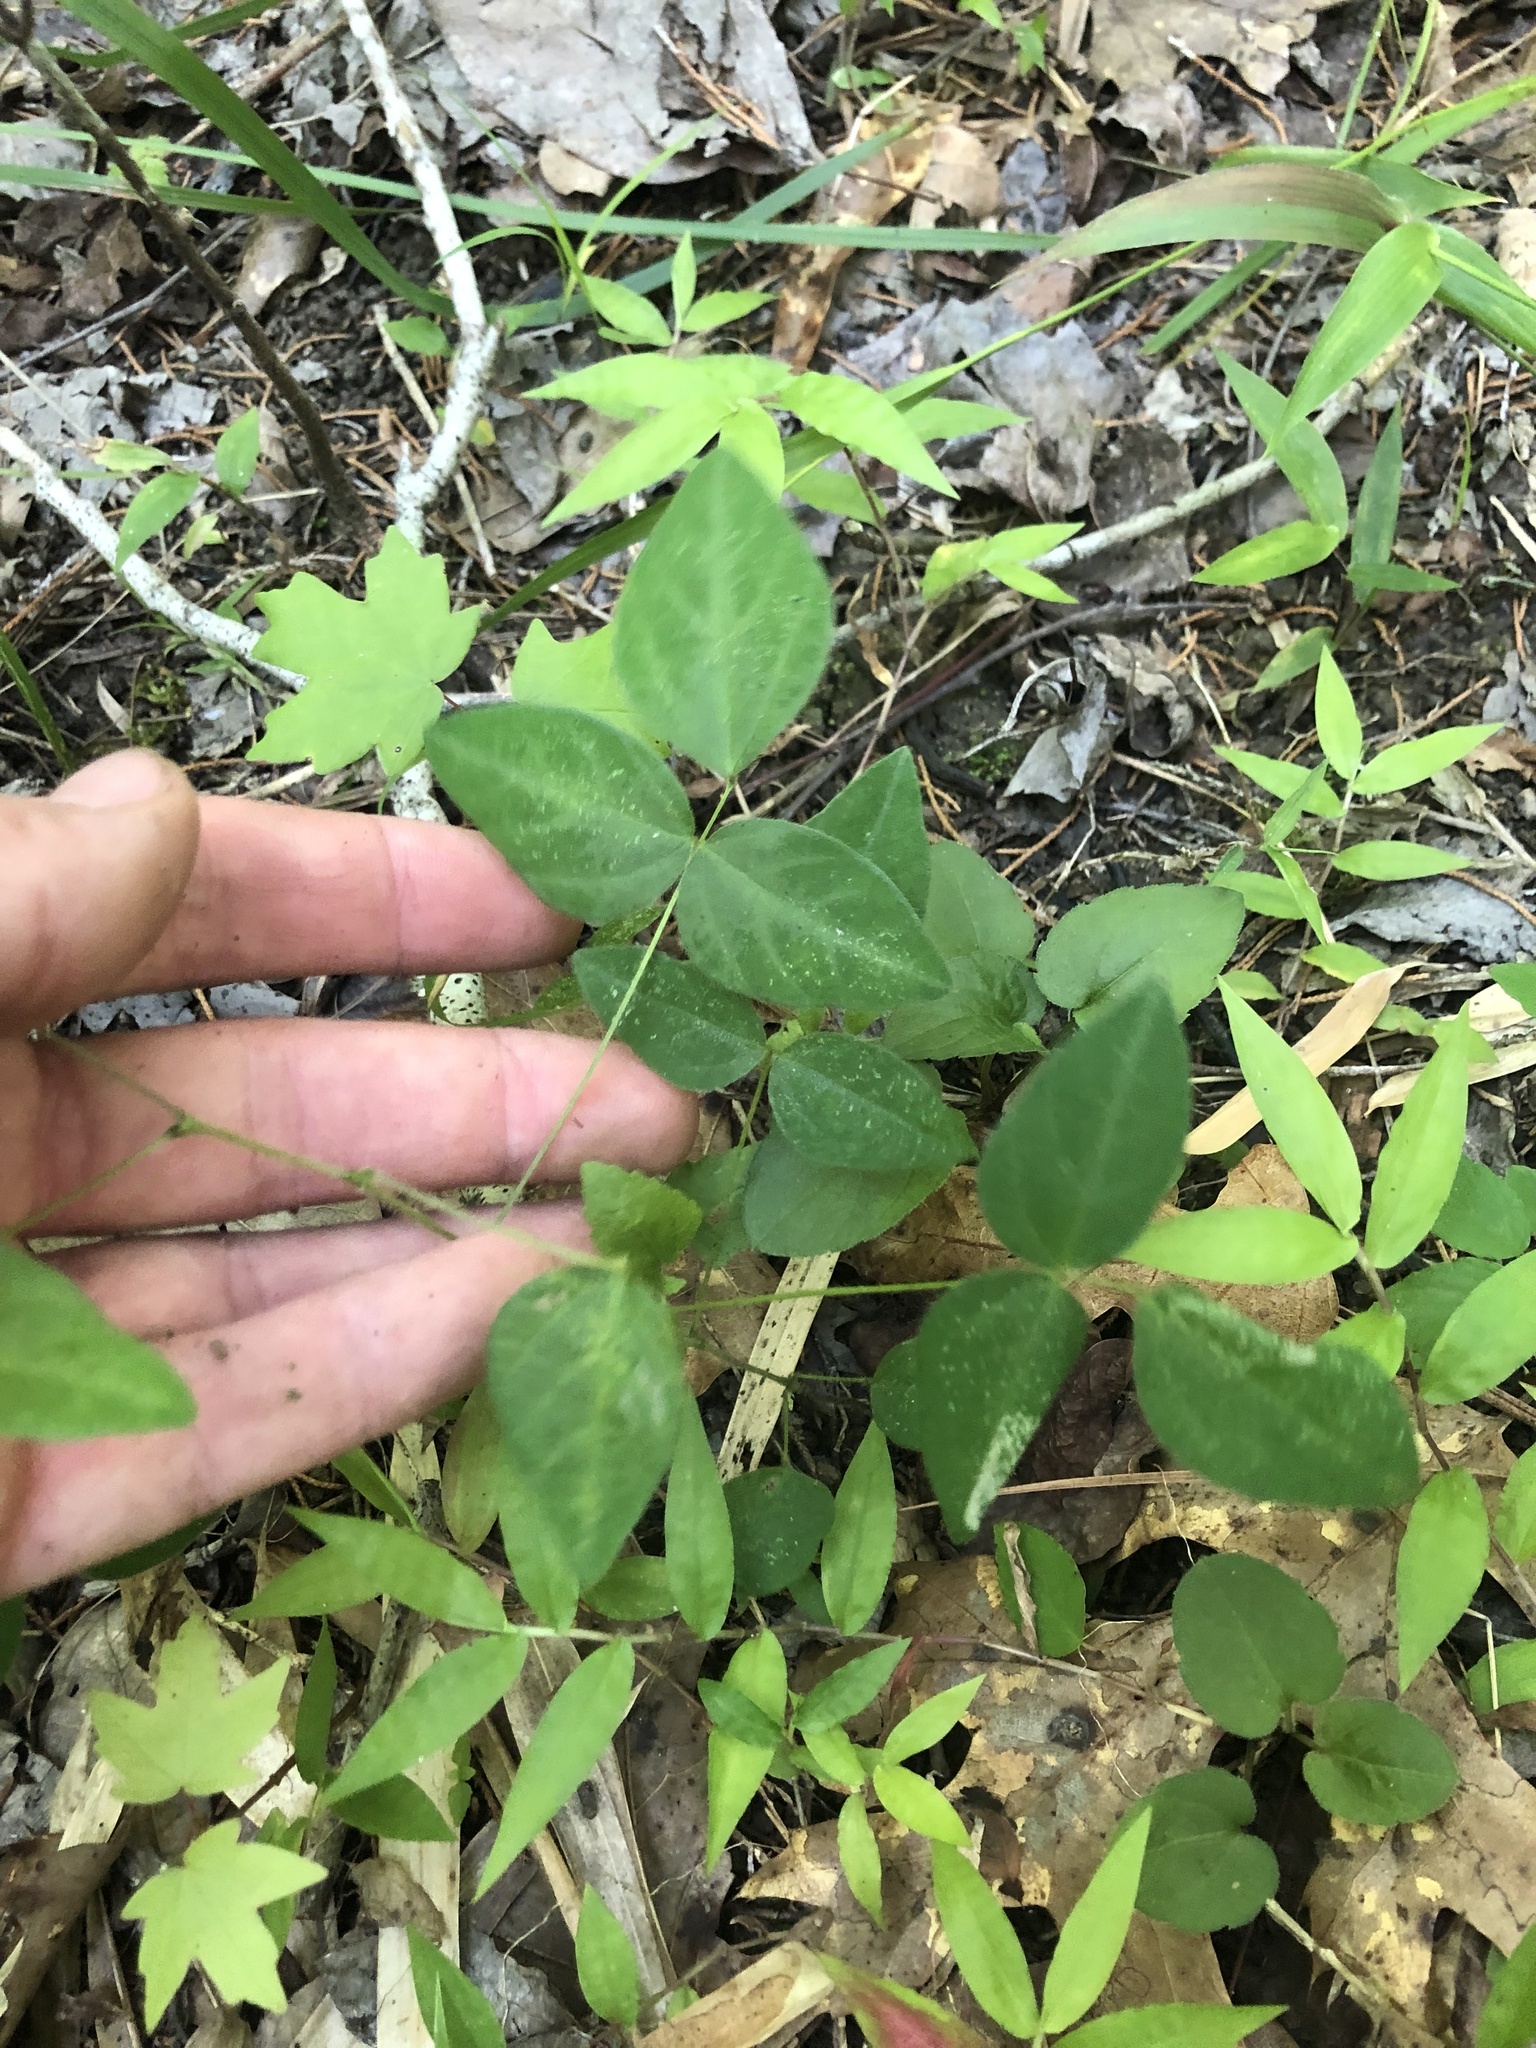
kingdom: Plantae
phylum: Tracheophyta
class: Magnoliopsida
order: Fabales
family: Fabaceae
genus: Amphicarpaea
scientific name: Amphicarpaea bracteata
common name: American hog peanut
